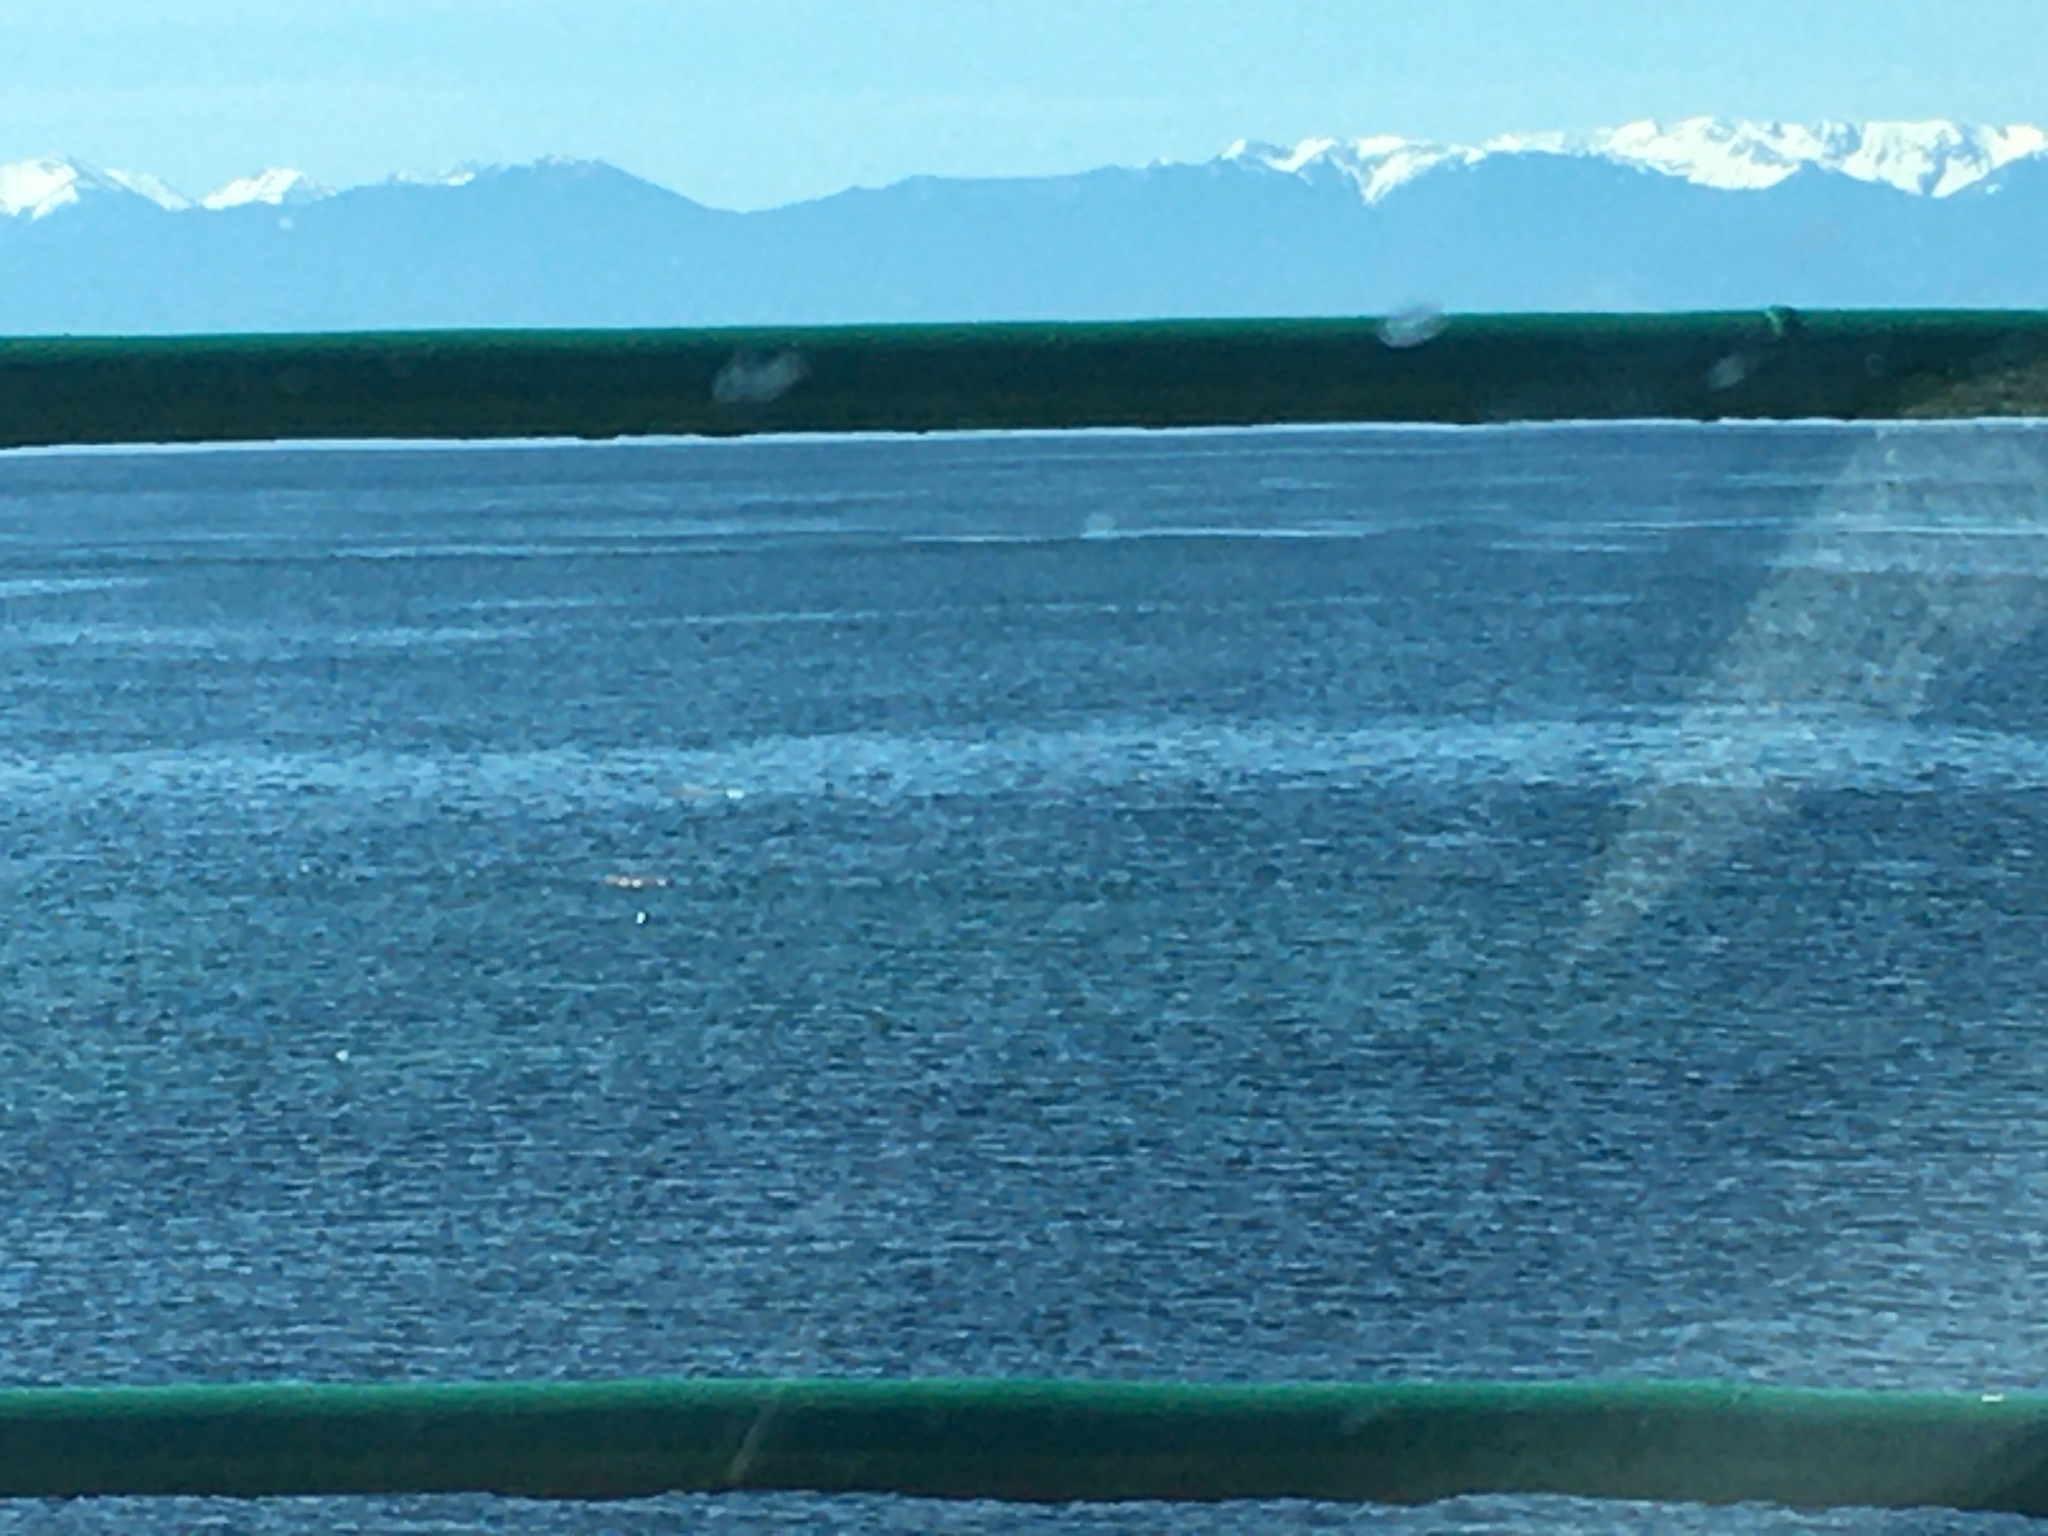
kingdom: Animalia
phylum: Chordata
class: Mammalia
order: Carnivora
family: Mustelidae
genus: Lontra
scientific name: Lontra canadensis
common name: North american river otter
